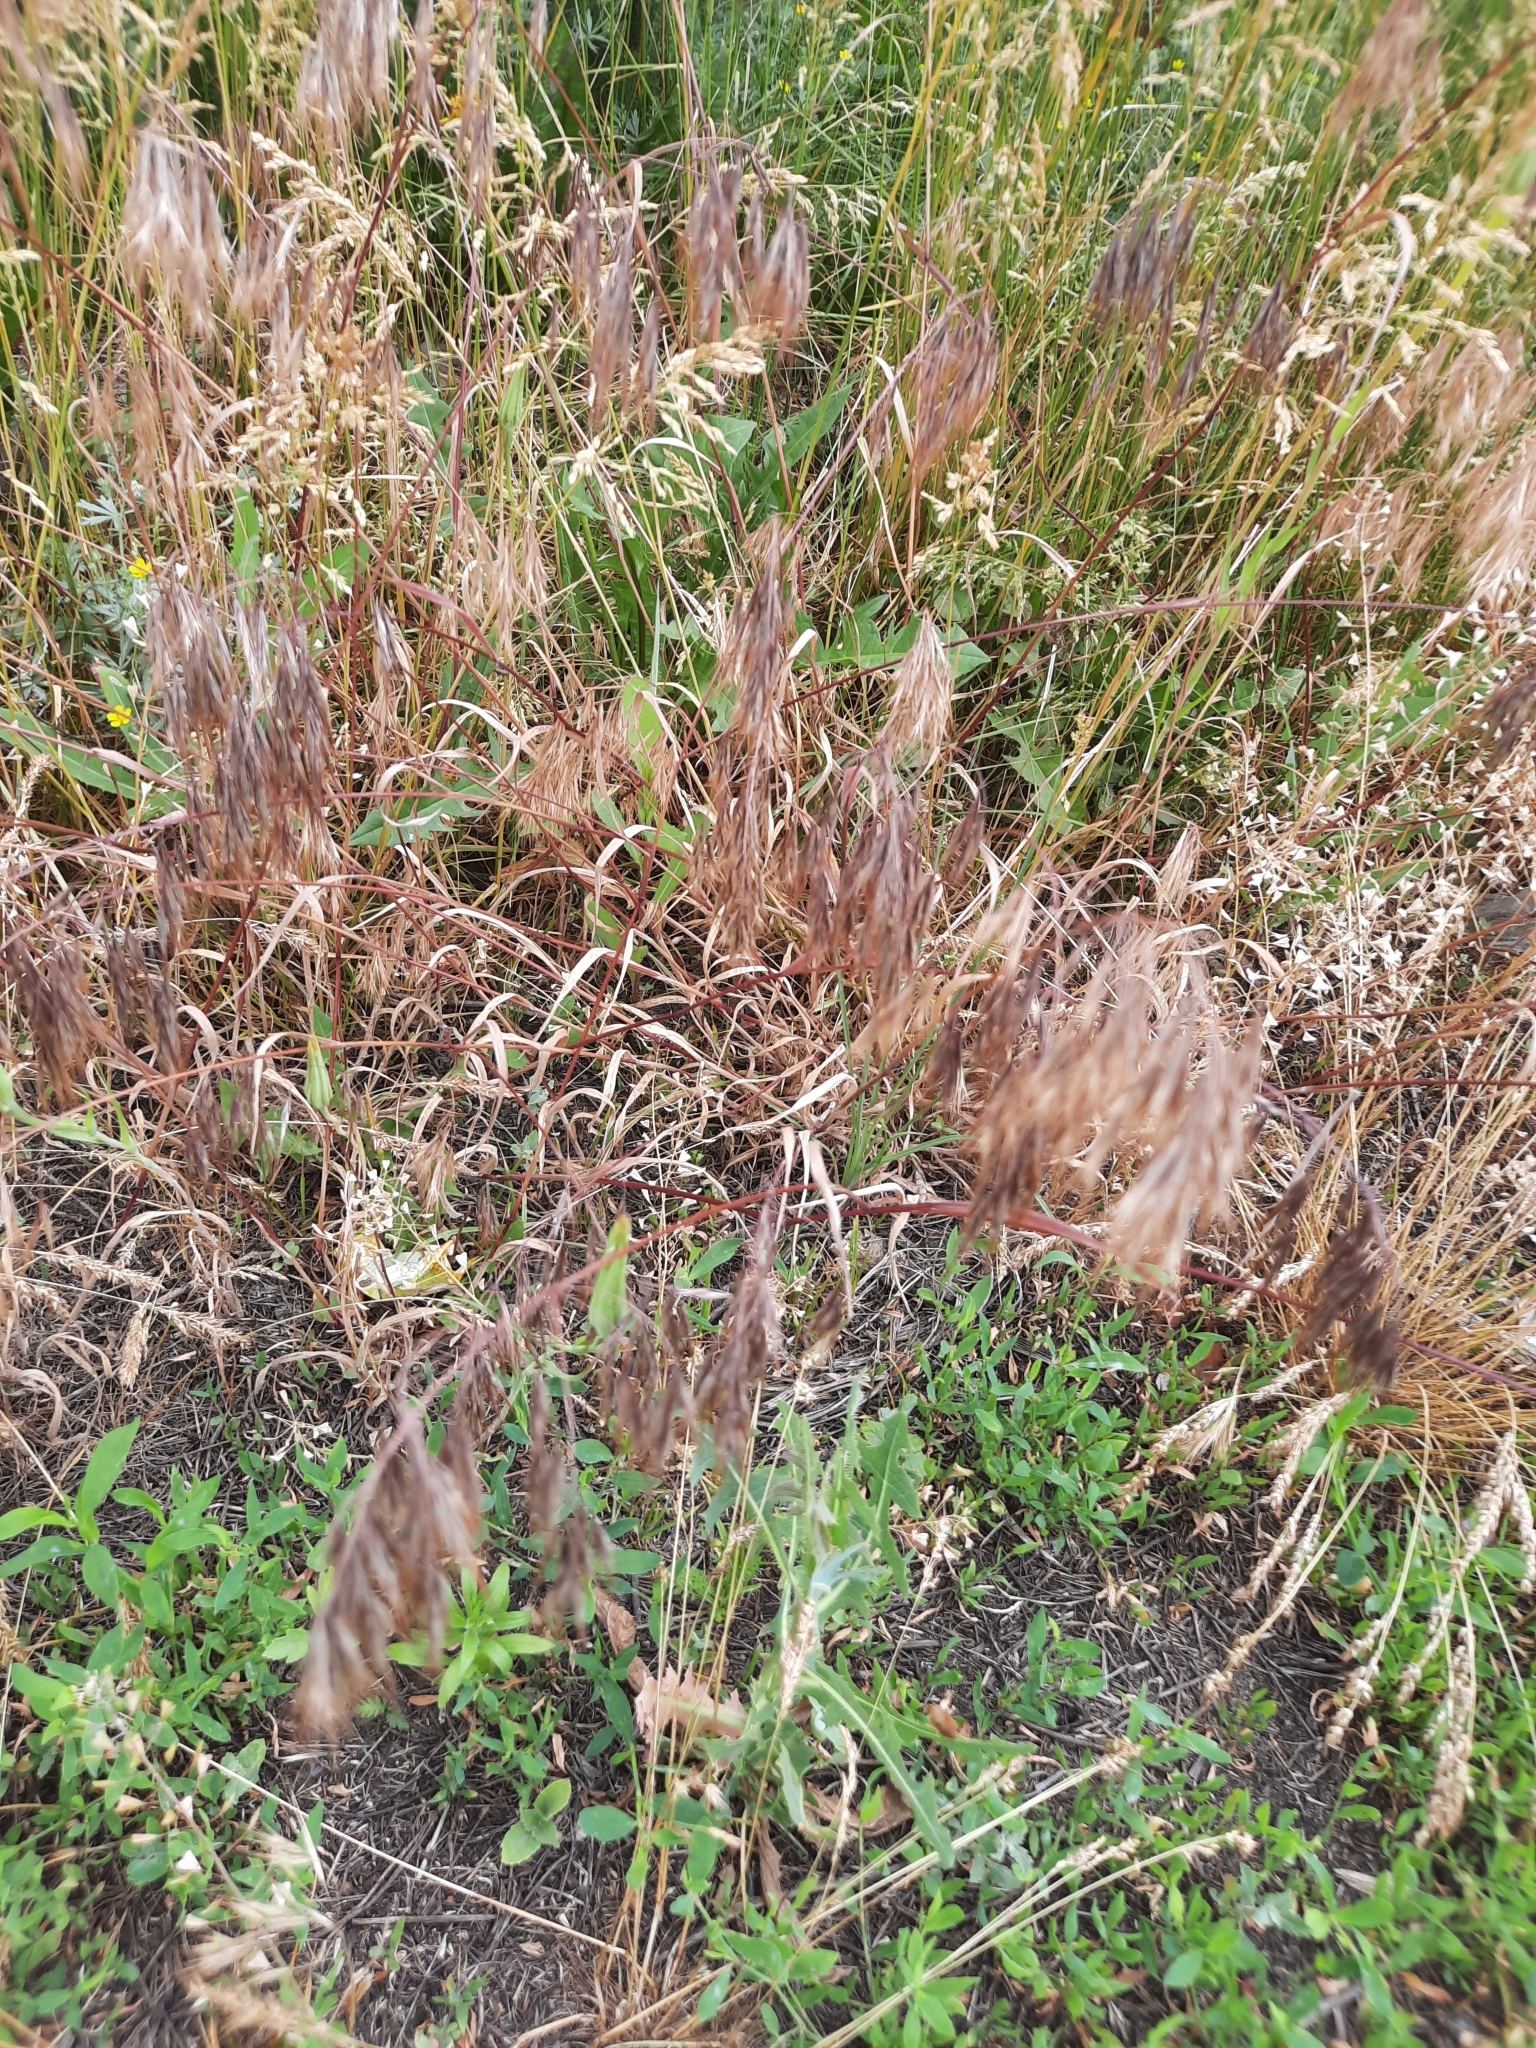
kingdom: Plantae
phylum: Tracheophyta
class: Liliopsida
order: Poales
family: Poaceae
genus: Bromus
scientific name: Bromus tectorum
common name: Cheatgrass
